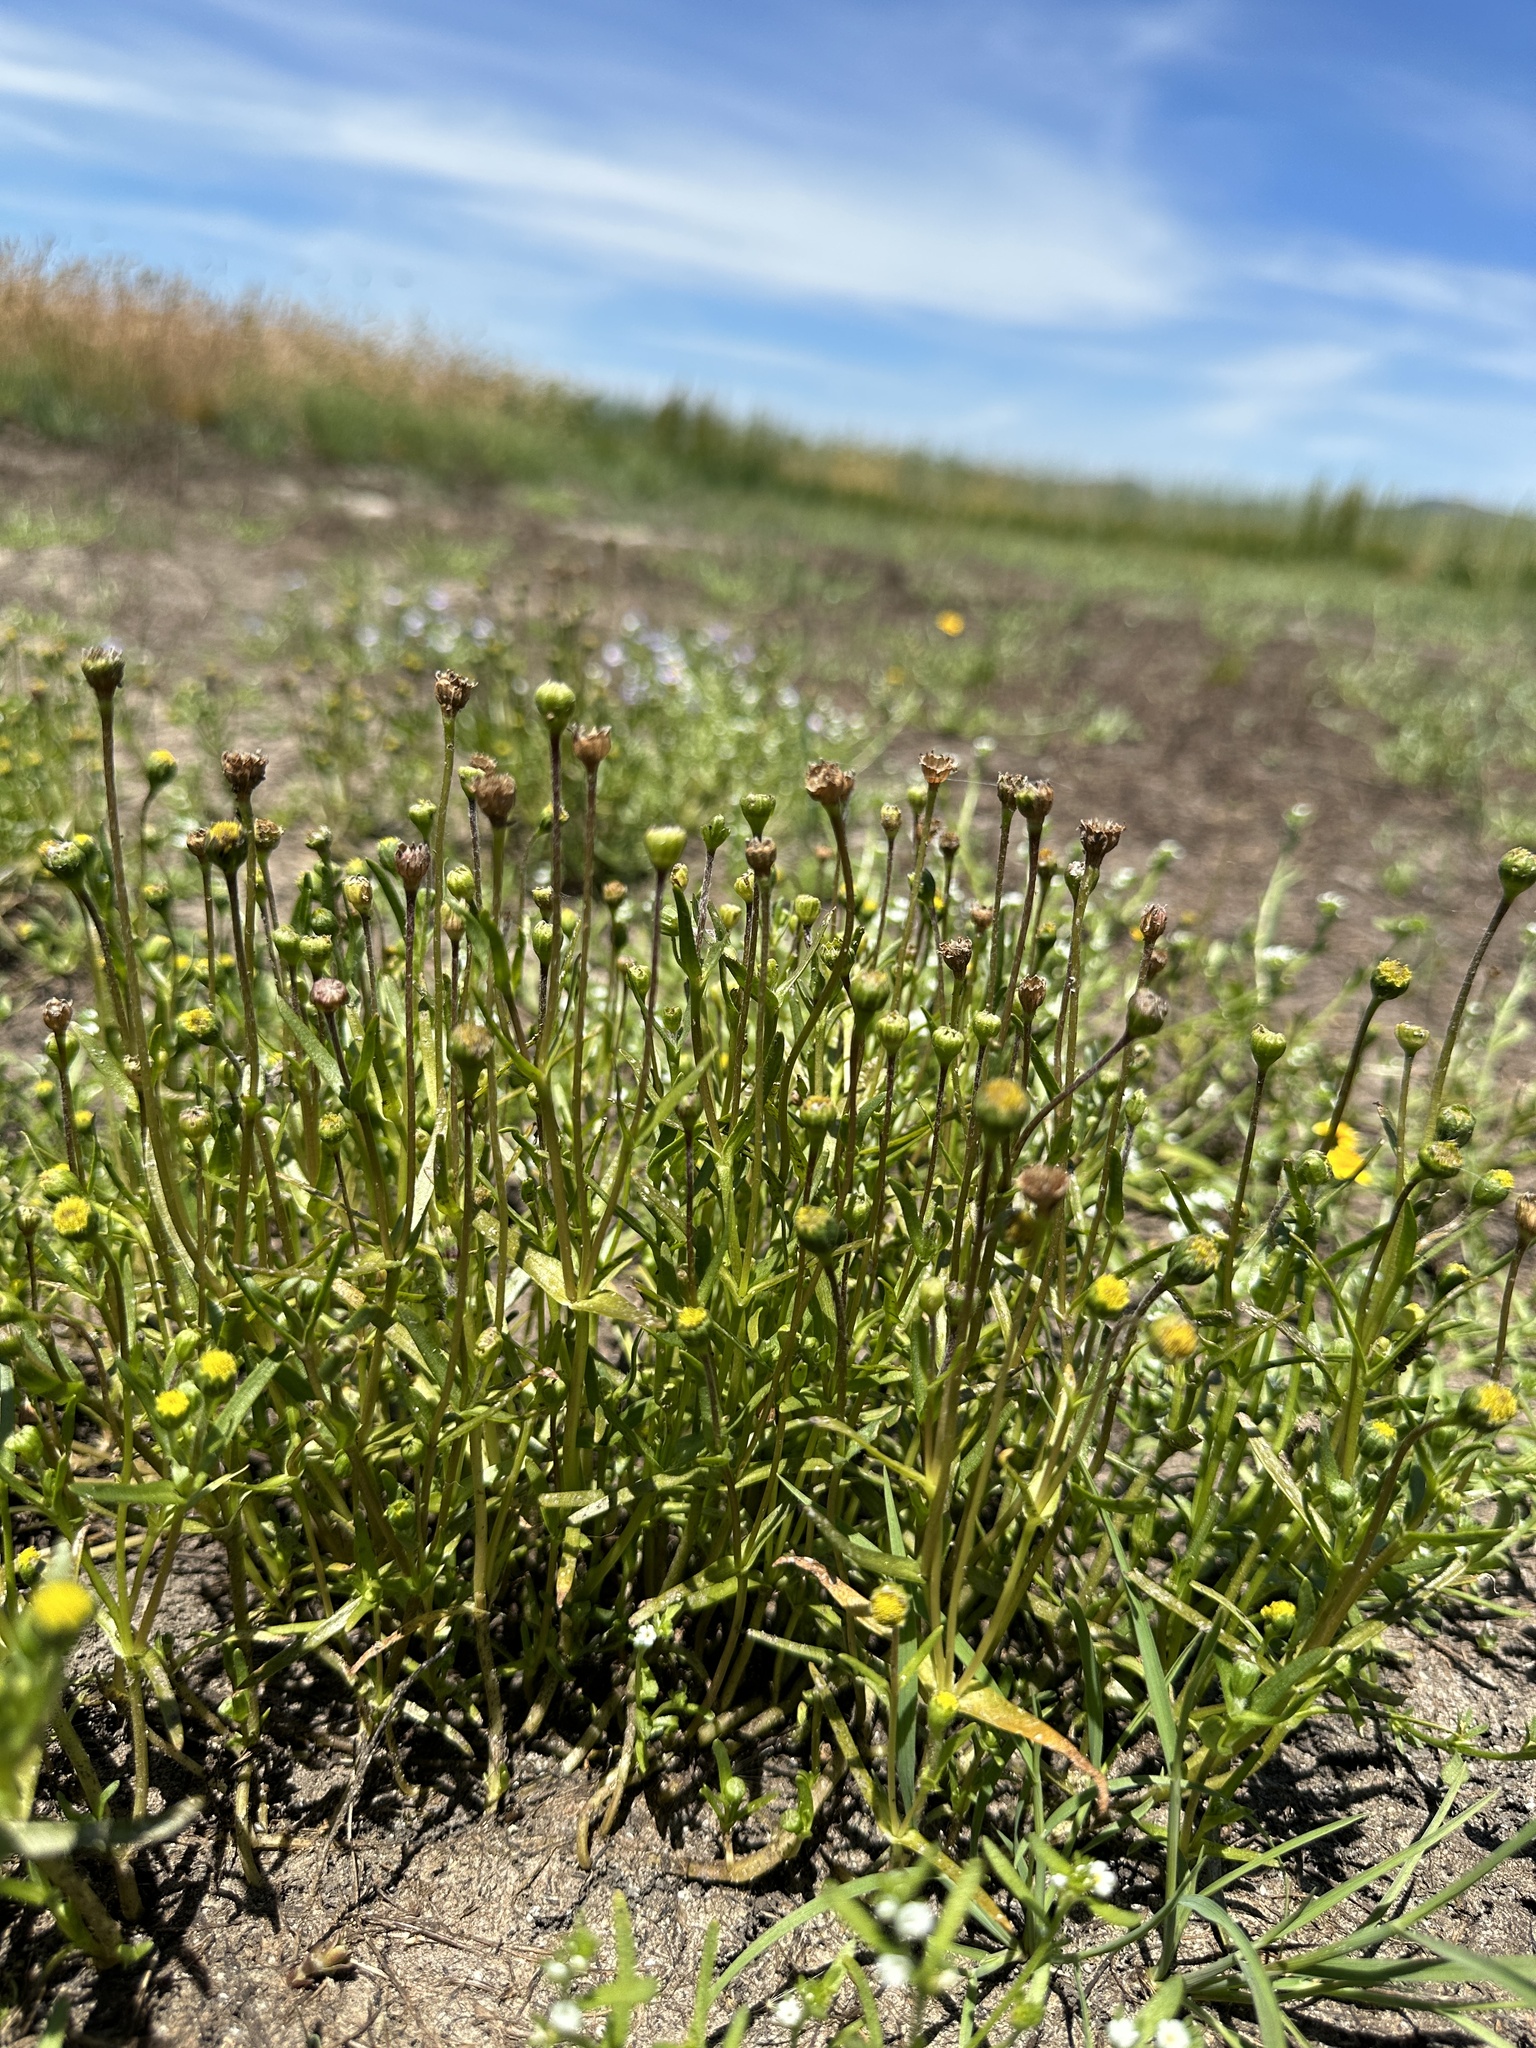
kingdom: Plantae
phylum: Tracheophyta
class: Magnoliopsida
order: Asterales
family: Asteraceae
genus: Lasthenia
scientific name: Lasthenia glaberrima
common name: Smooth goldfields
